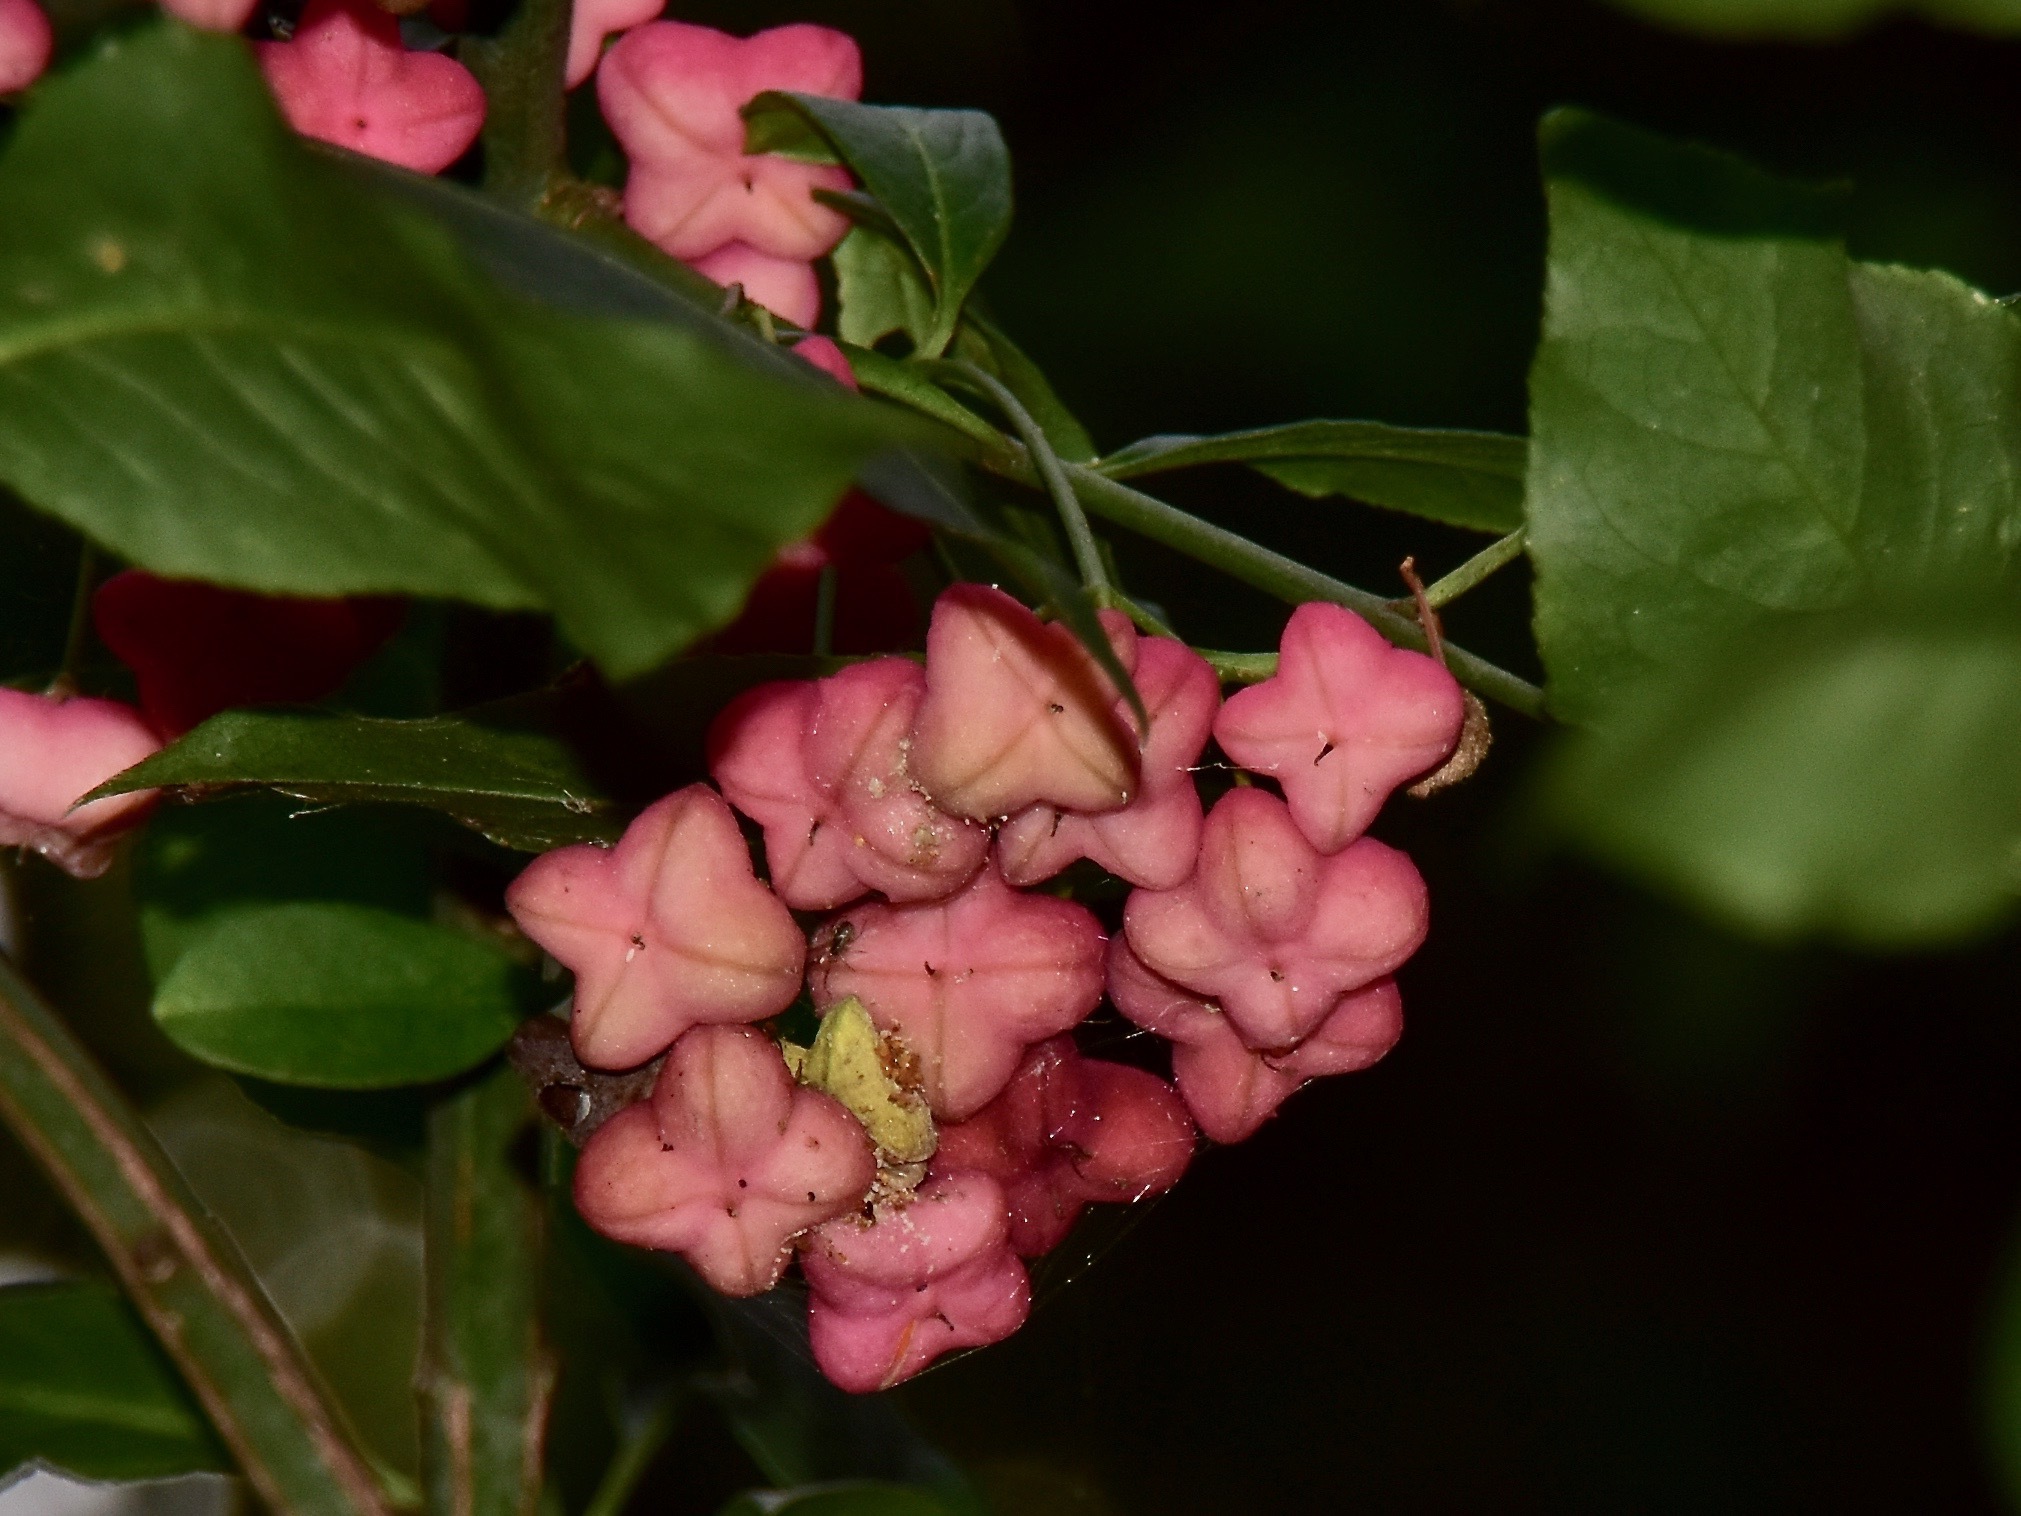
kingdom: Plantae
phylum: Tracheophyta
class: Magnoliopsida
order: Celastrales
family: Celastraceae
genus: Euonymus
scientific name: Euonymus europaeus
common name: Spindle
